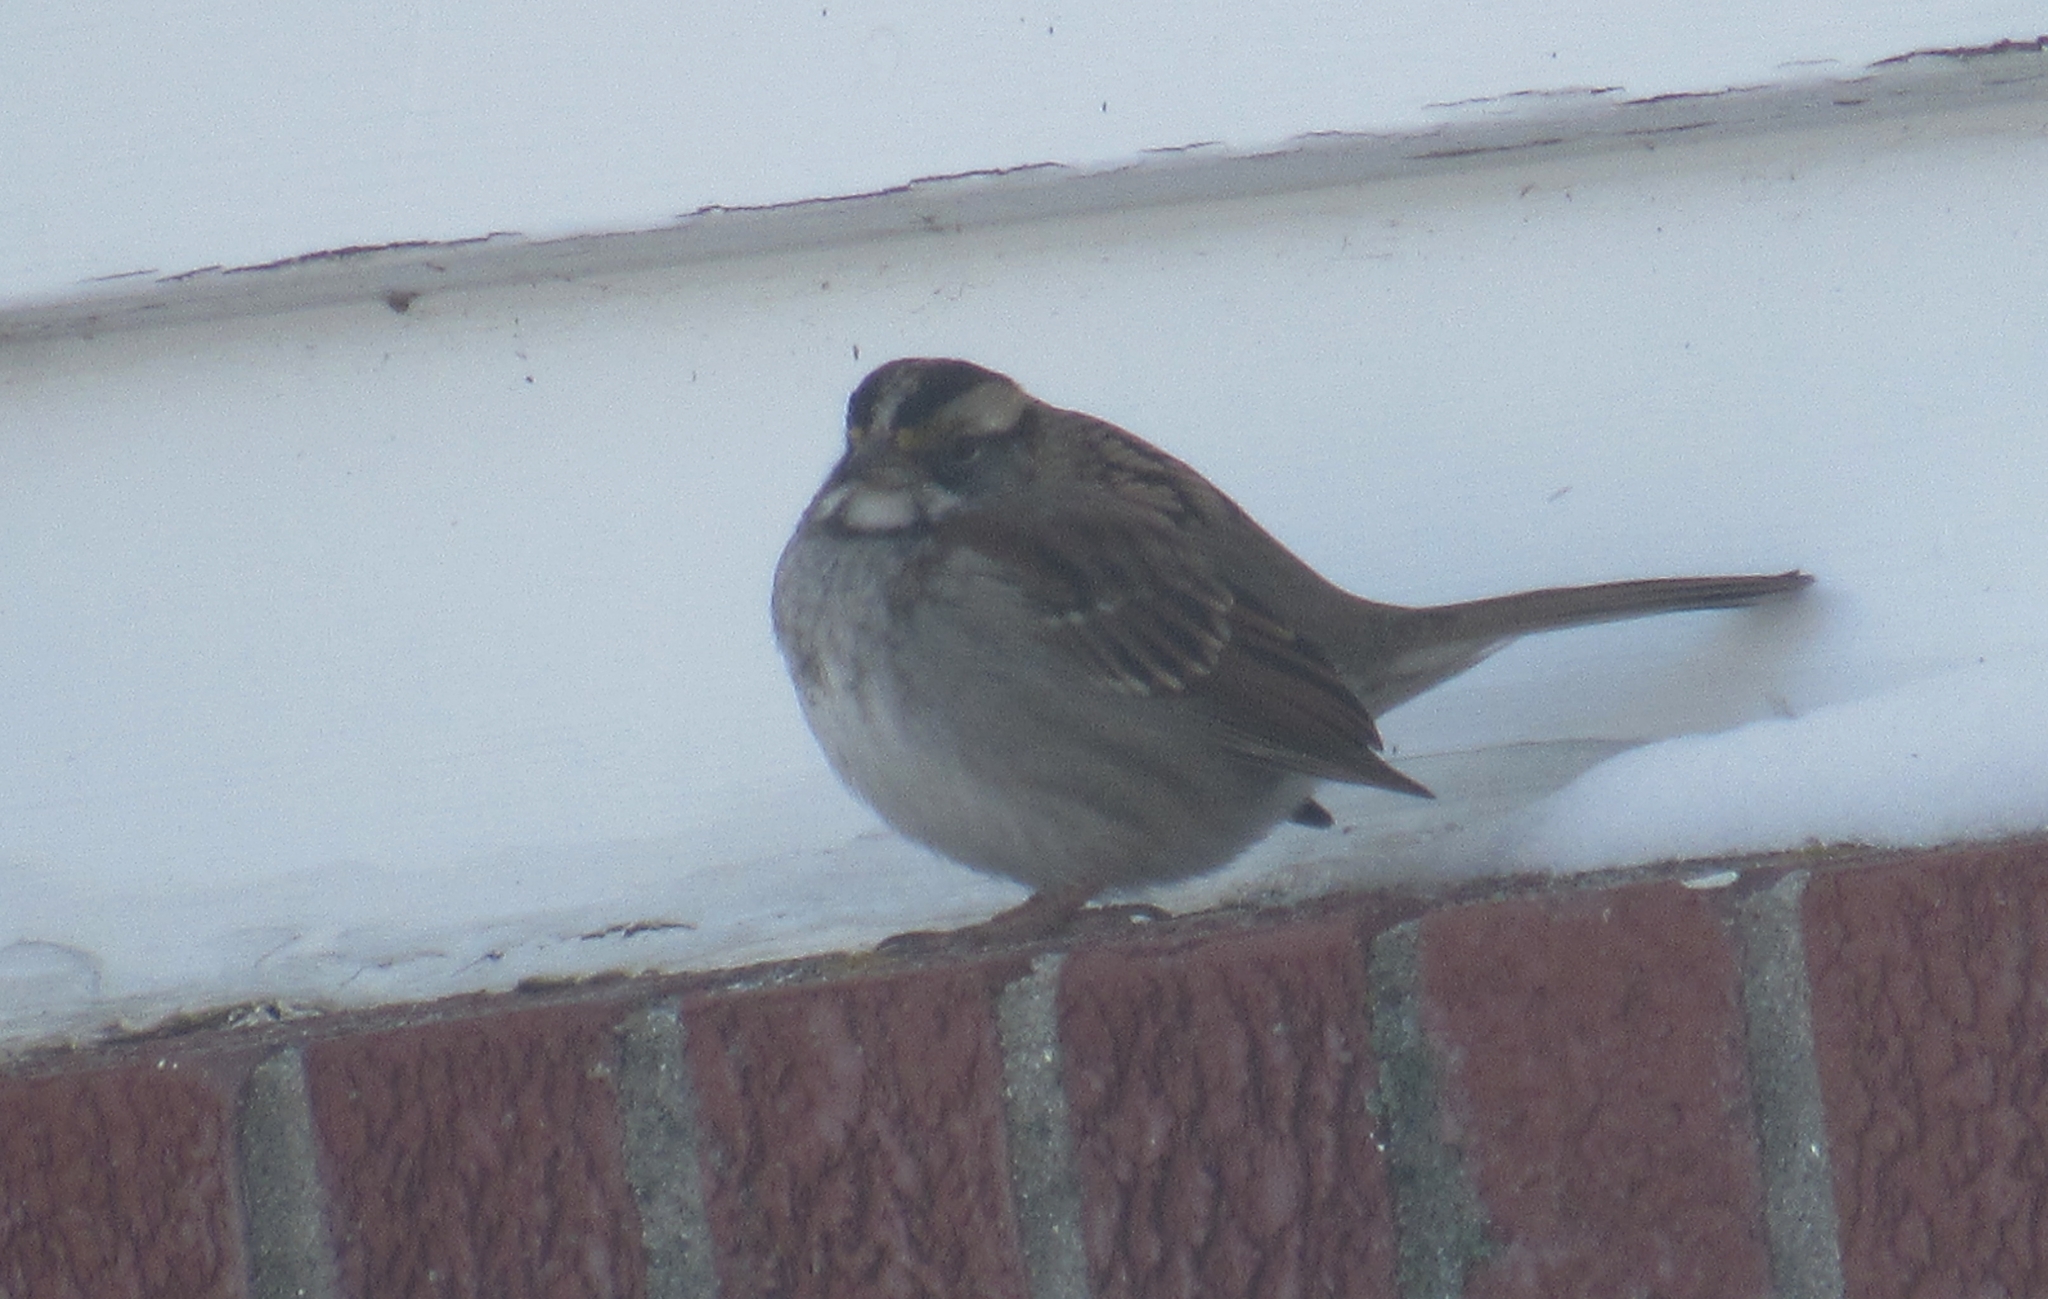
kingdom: Animalia
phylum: Chordata
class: Aves
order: Passeriformes
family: Passerellidae
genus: Zonotrichia
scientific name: Zonotrichia albicollis
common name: White-throated sparrow
